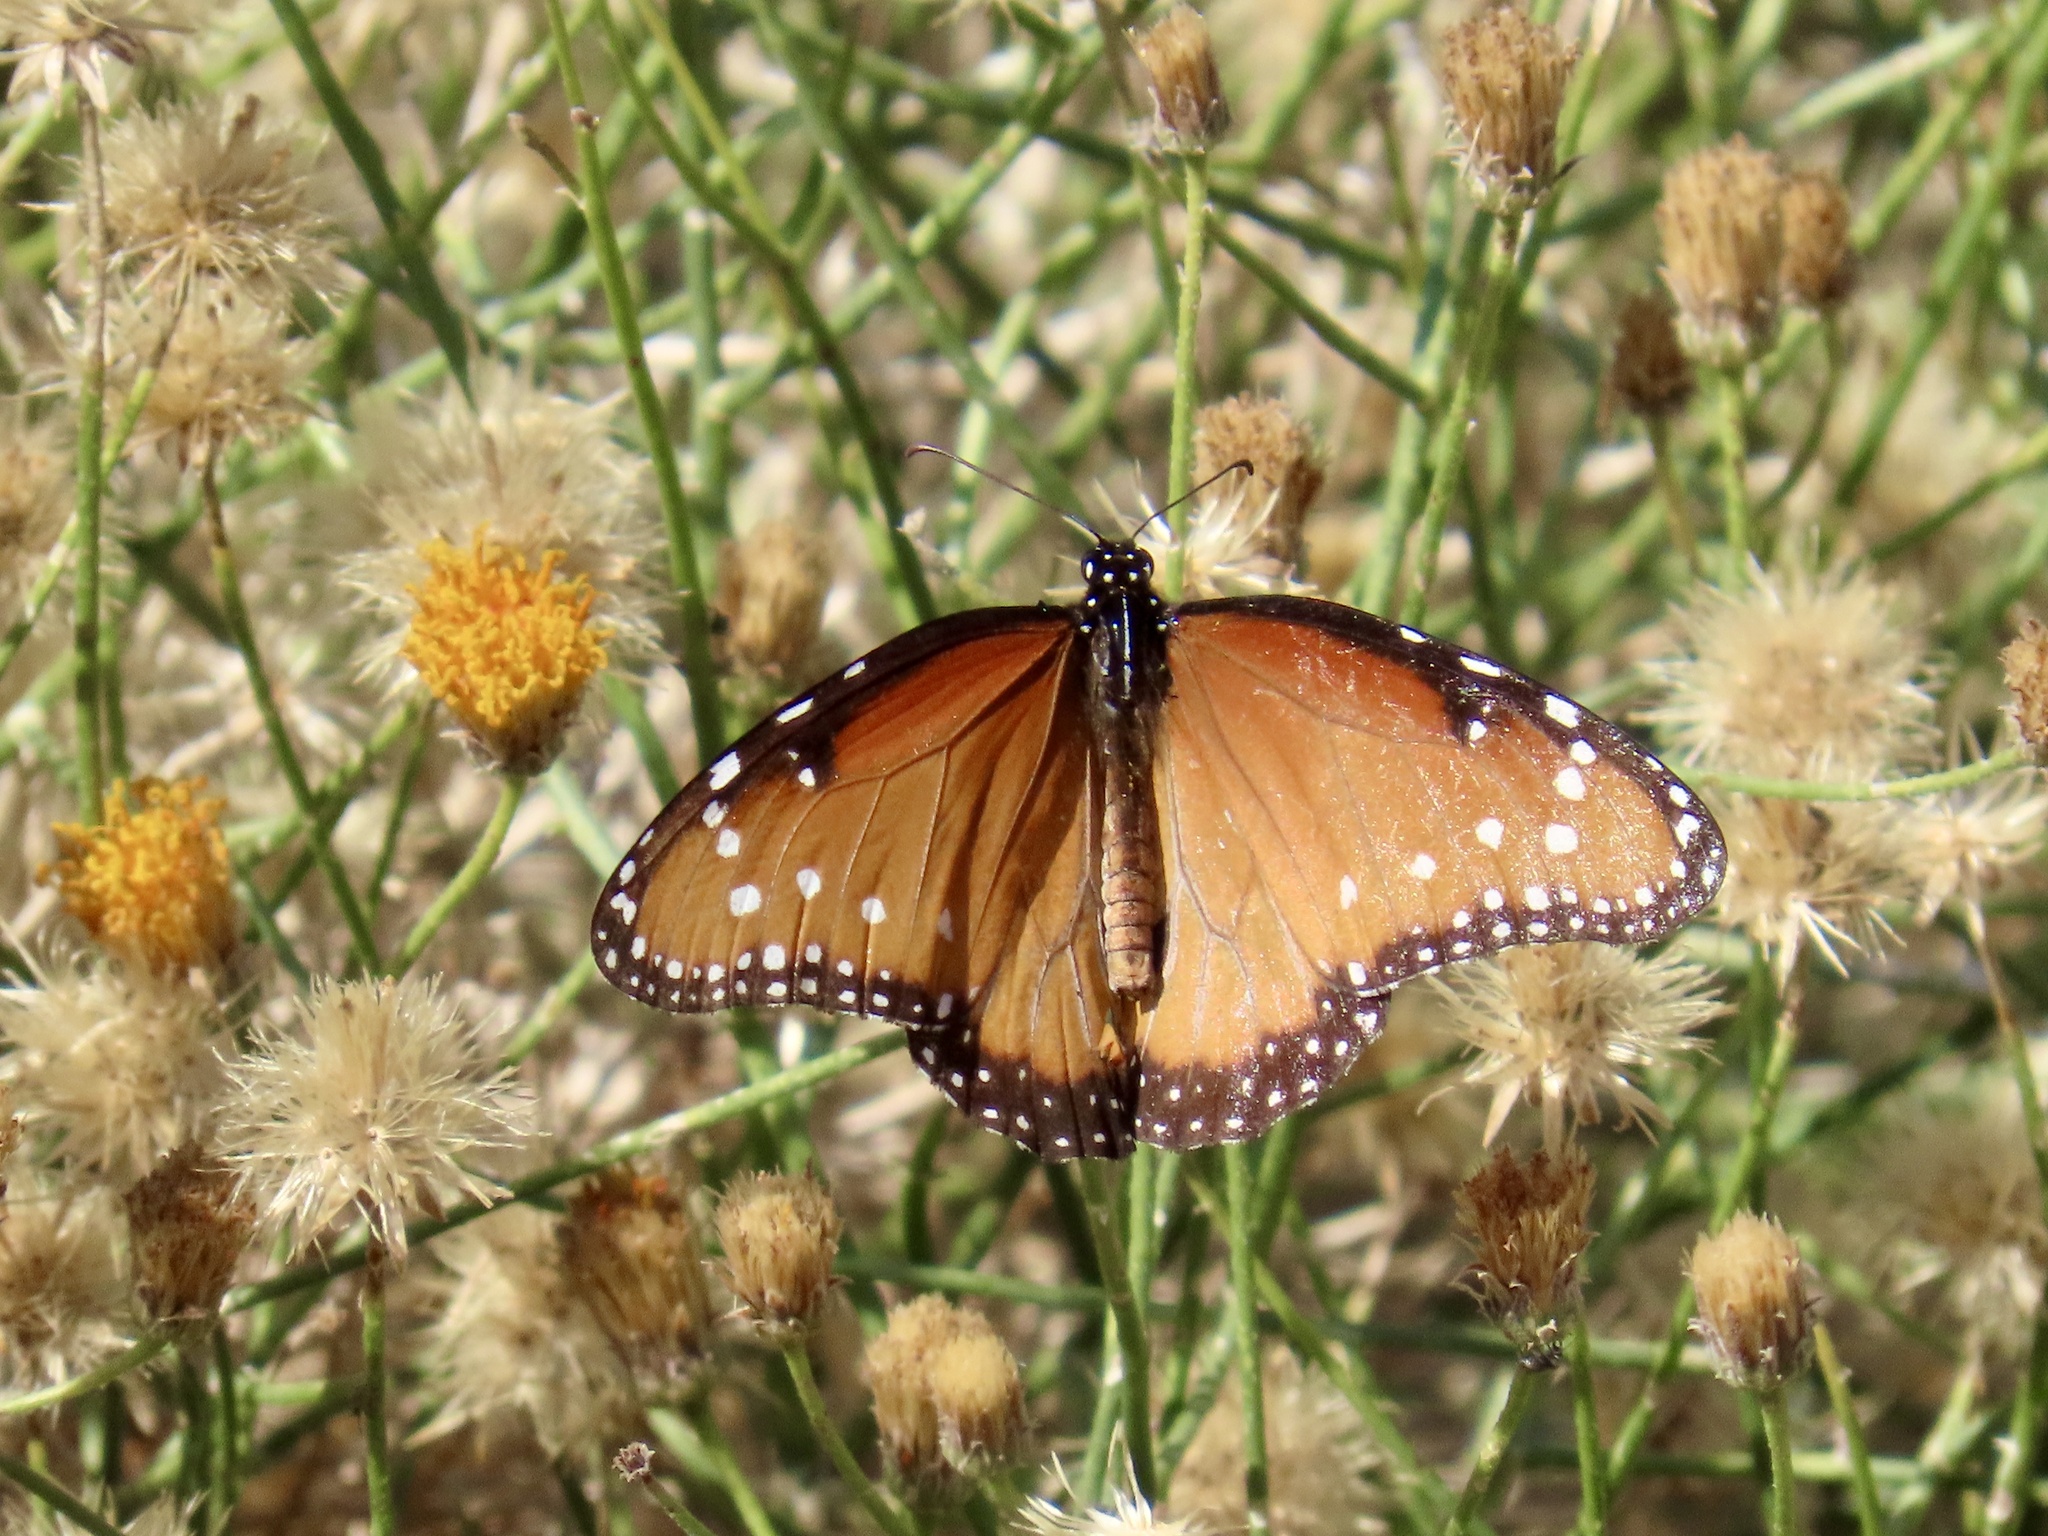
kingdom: Animalia
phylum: Arthropoda
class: Insecta
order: Lepidoptera
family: Nymphalidae
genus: Danaus
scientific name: Danaus gilippus
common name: Queen
